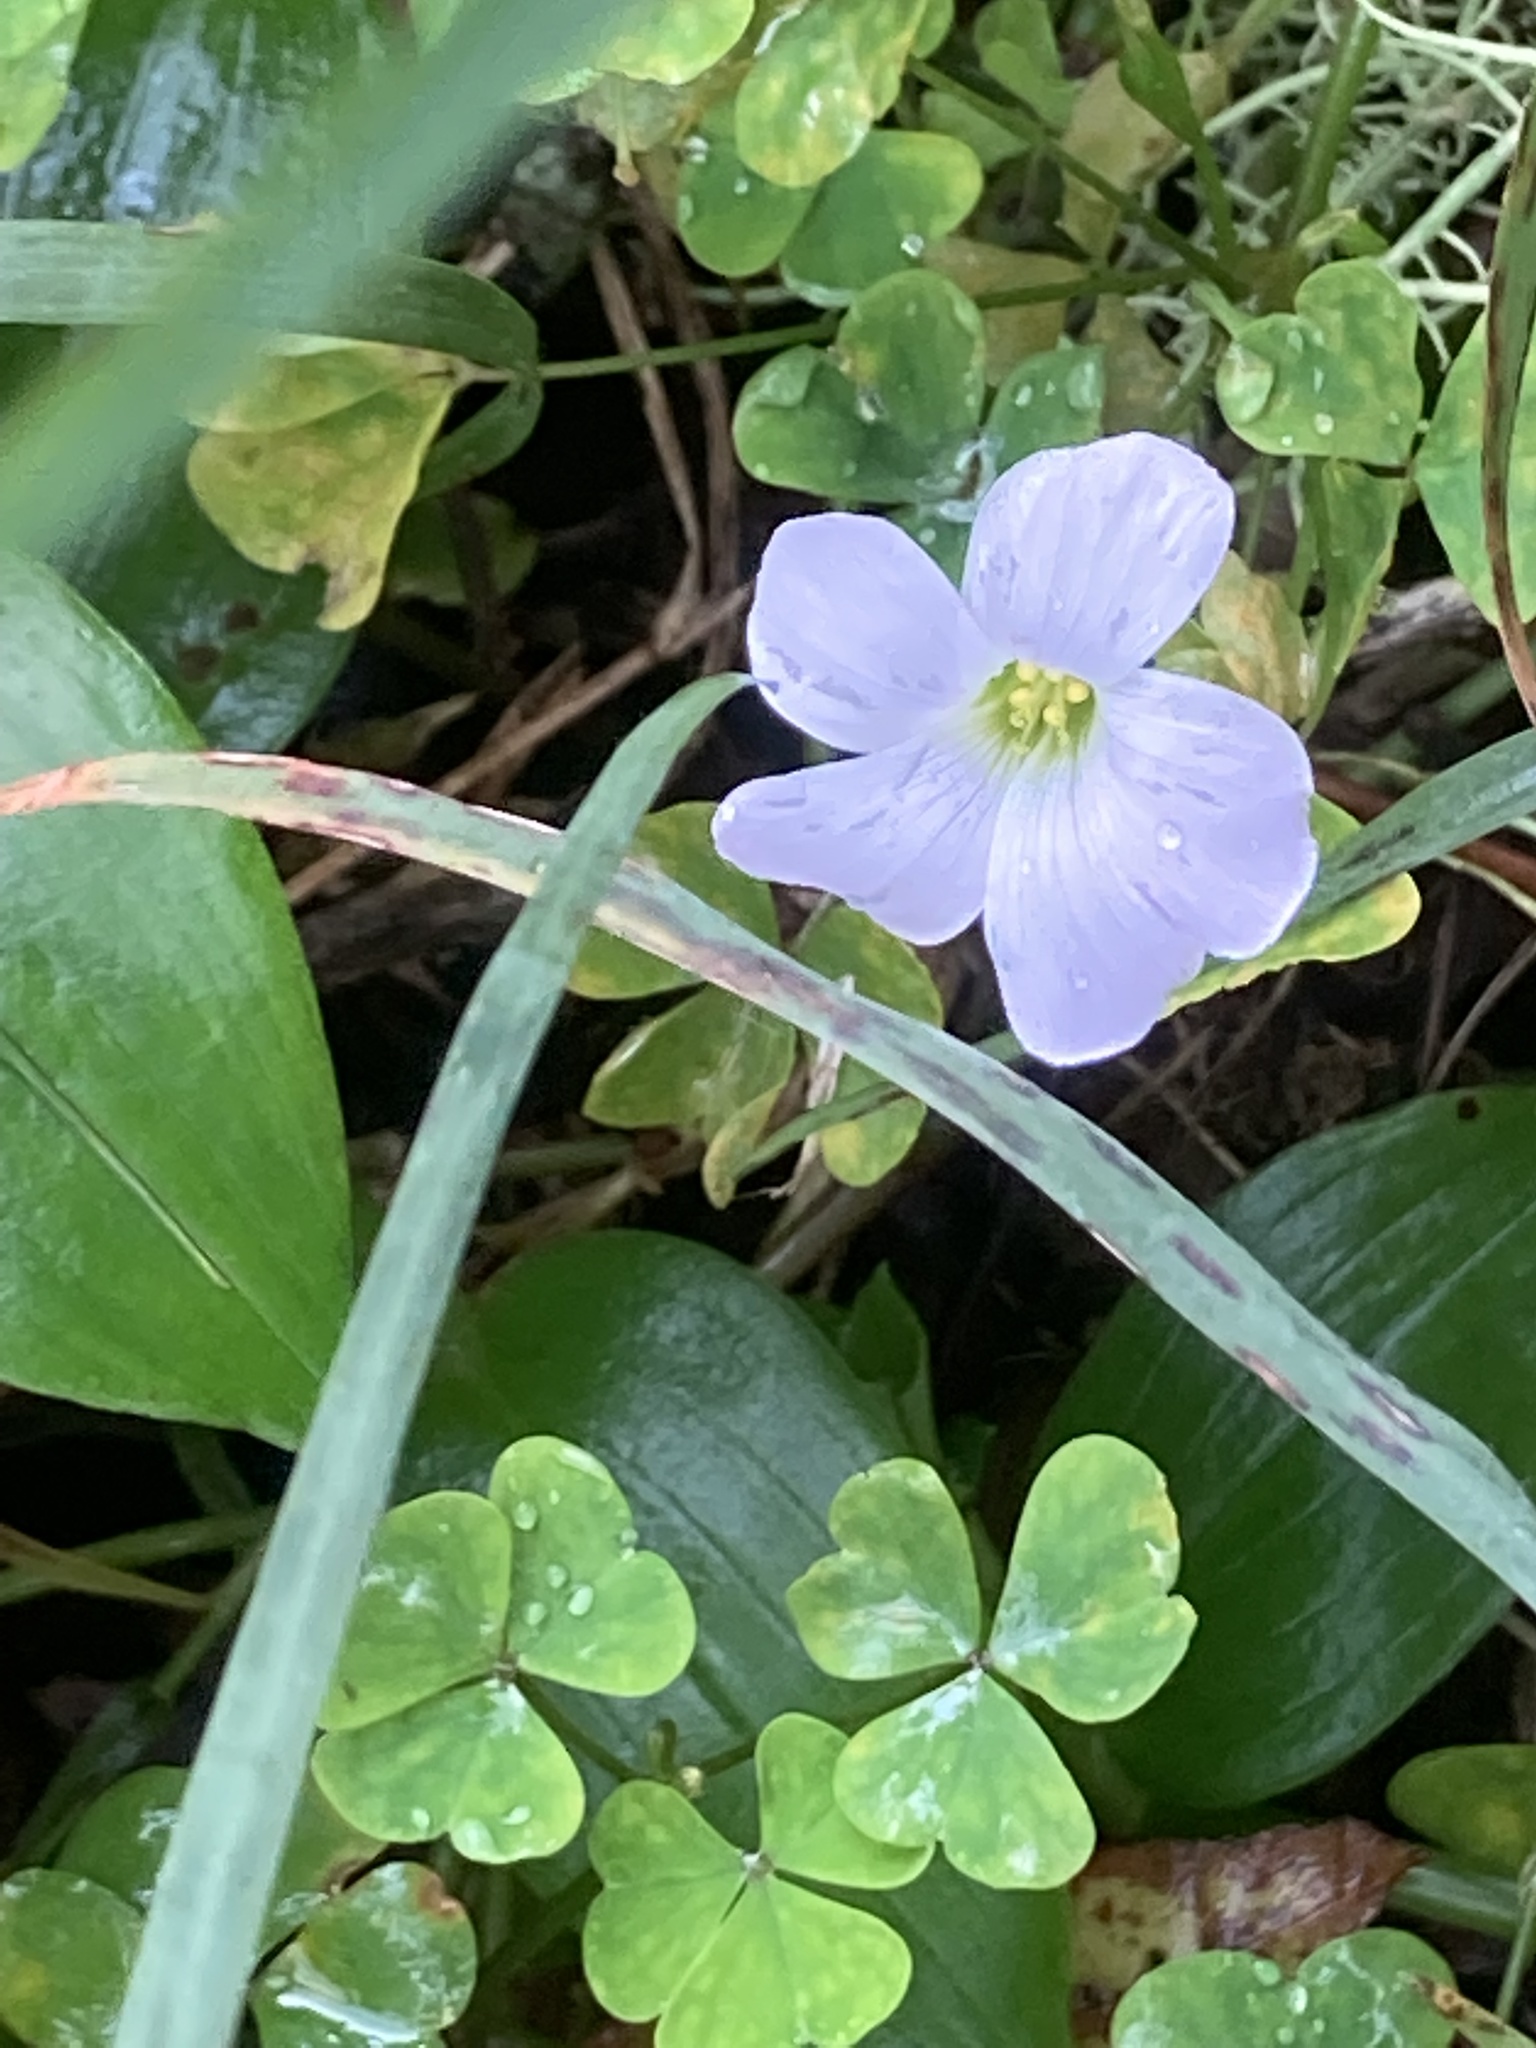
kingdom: Plantae
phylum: Tracheophyta
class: Magnoliopsida
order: Oxalidales
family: Oxalidaceae
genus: Oxalis
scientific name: Oxalis incarnata
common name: Pale pink-sorrel
